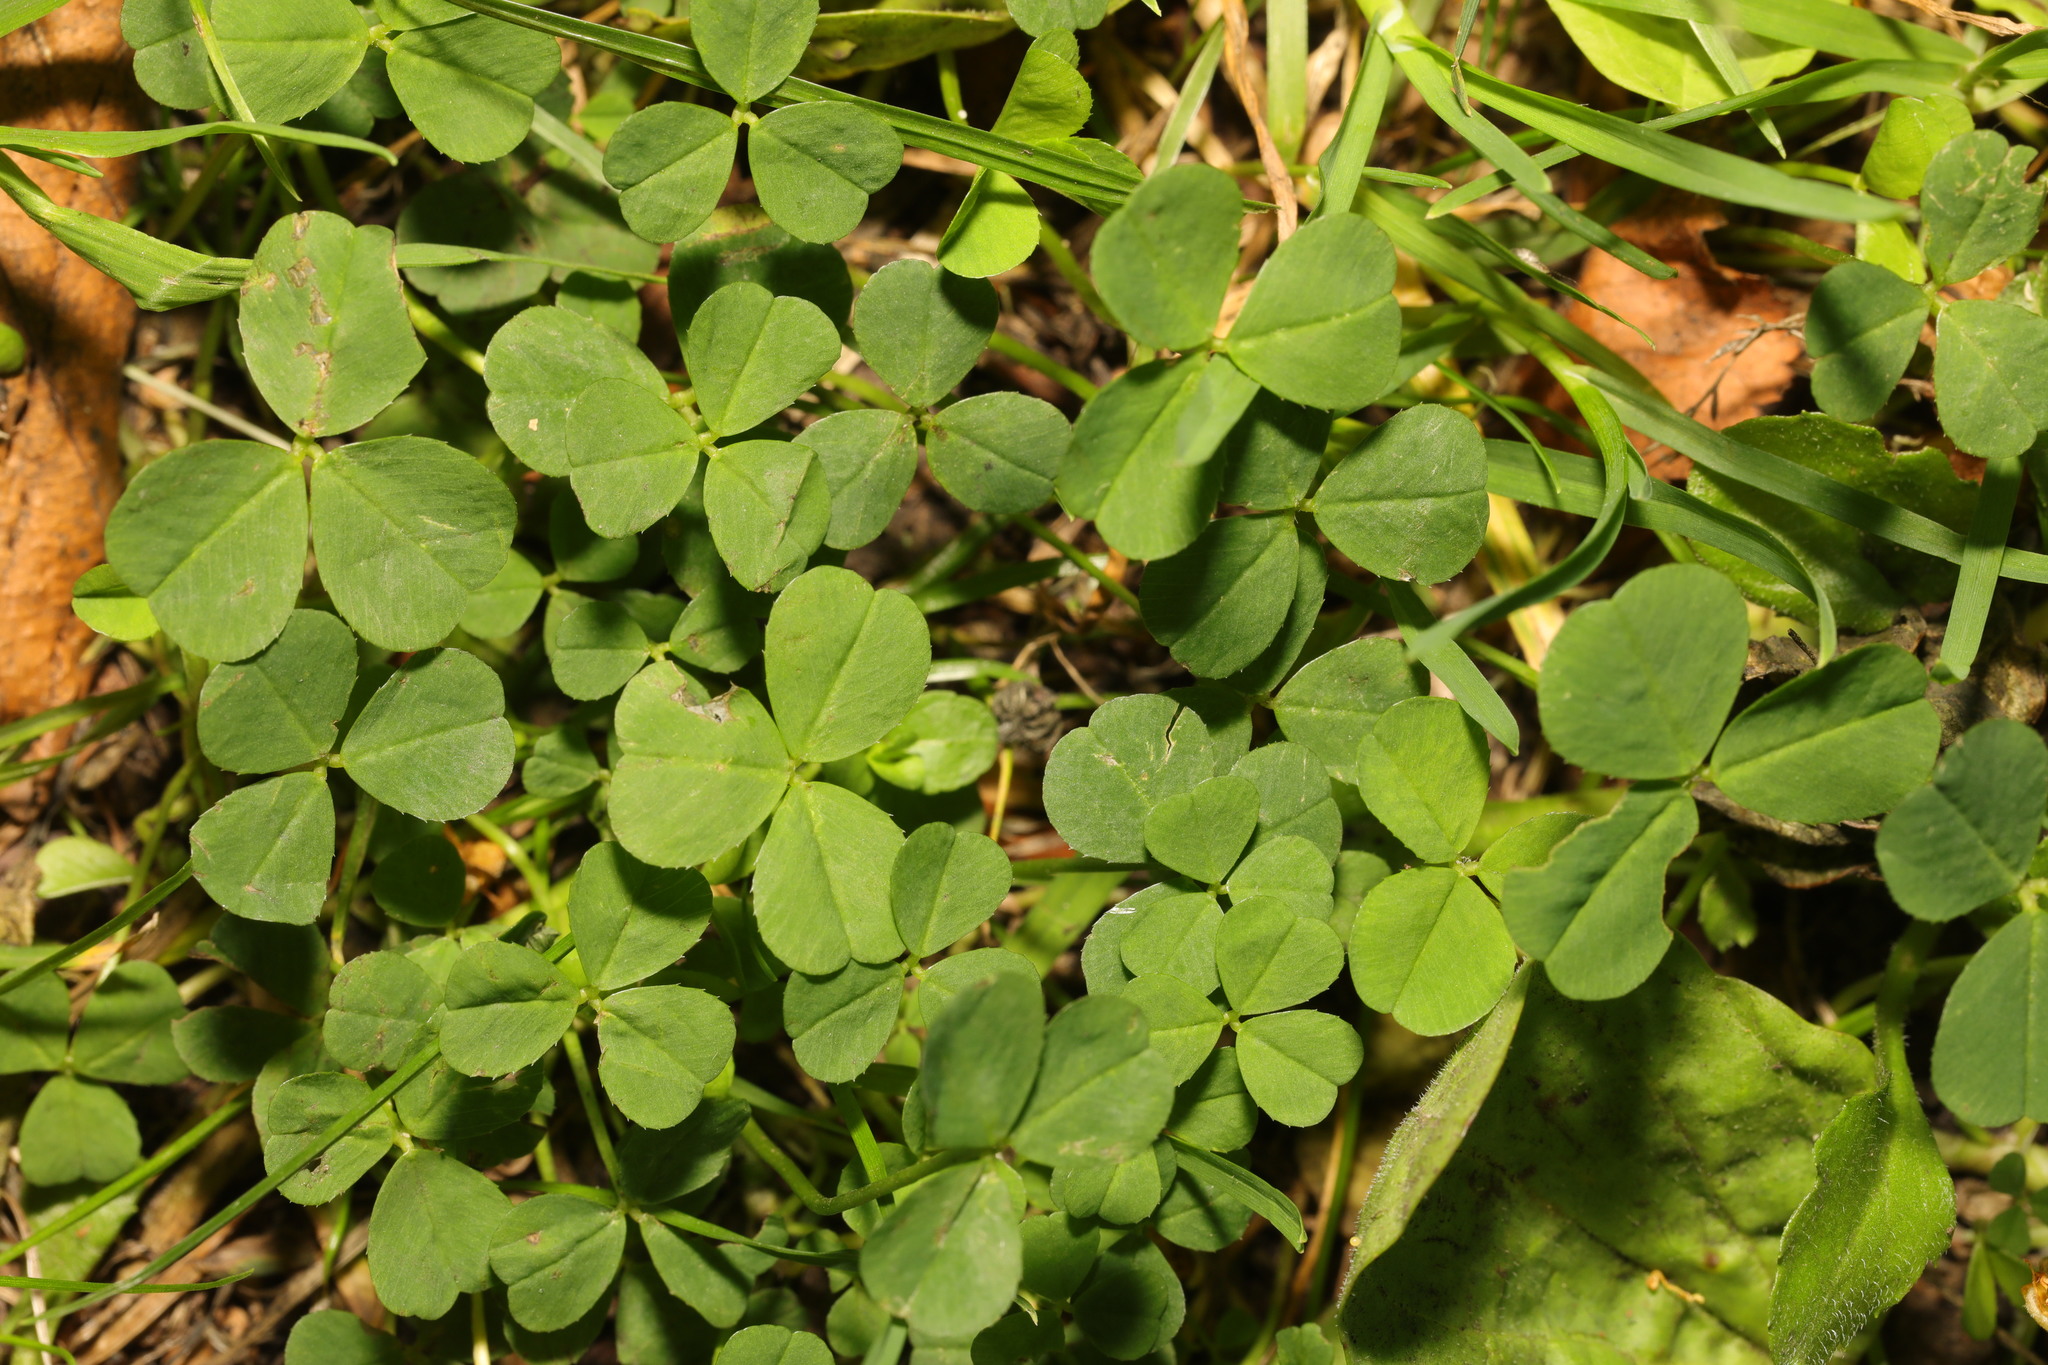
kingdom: Plantae
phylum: Tracheophyta
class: Magnoliopsida
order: Fabales
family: Fabaceae
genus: Trifolium
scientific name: Trifolium repens
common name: White clover
